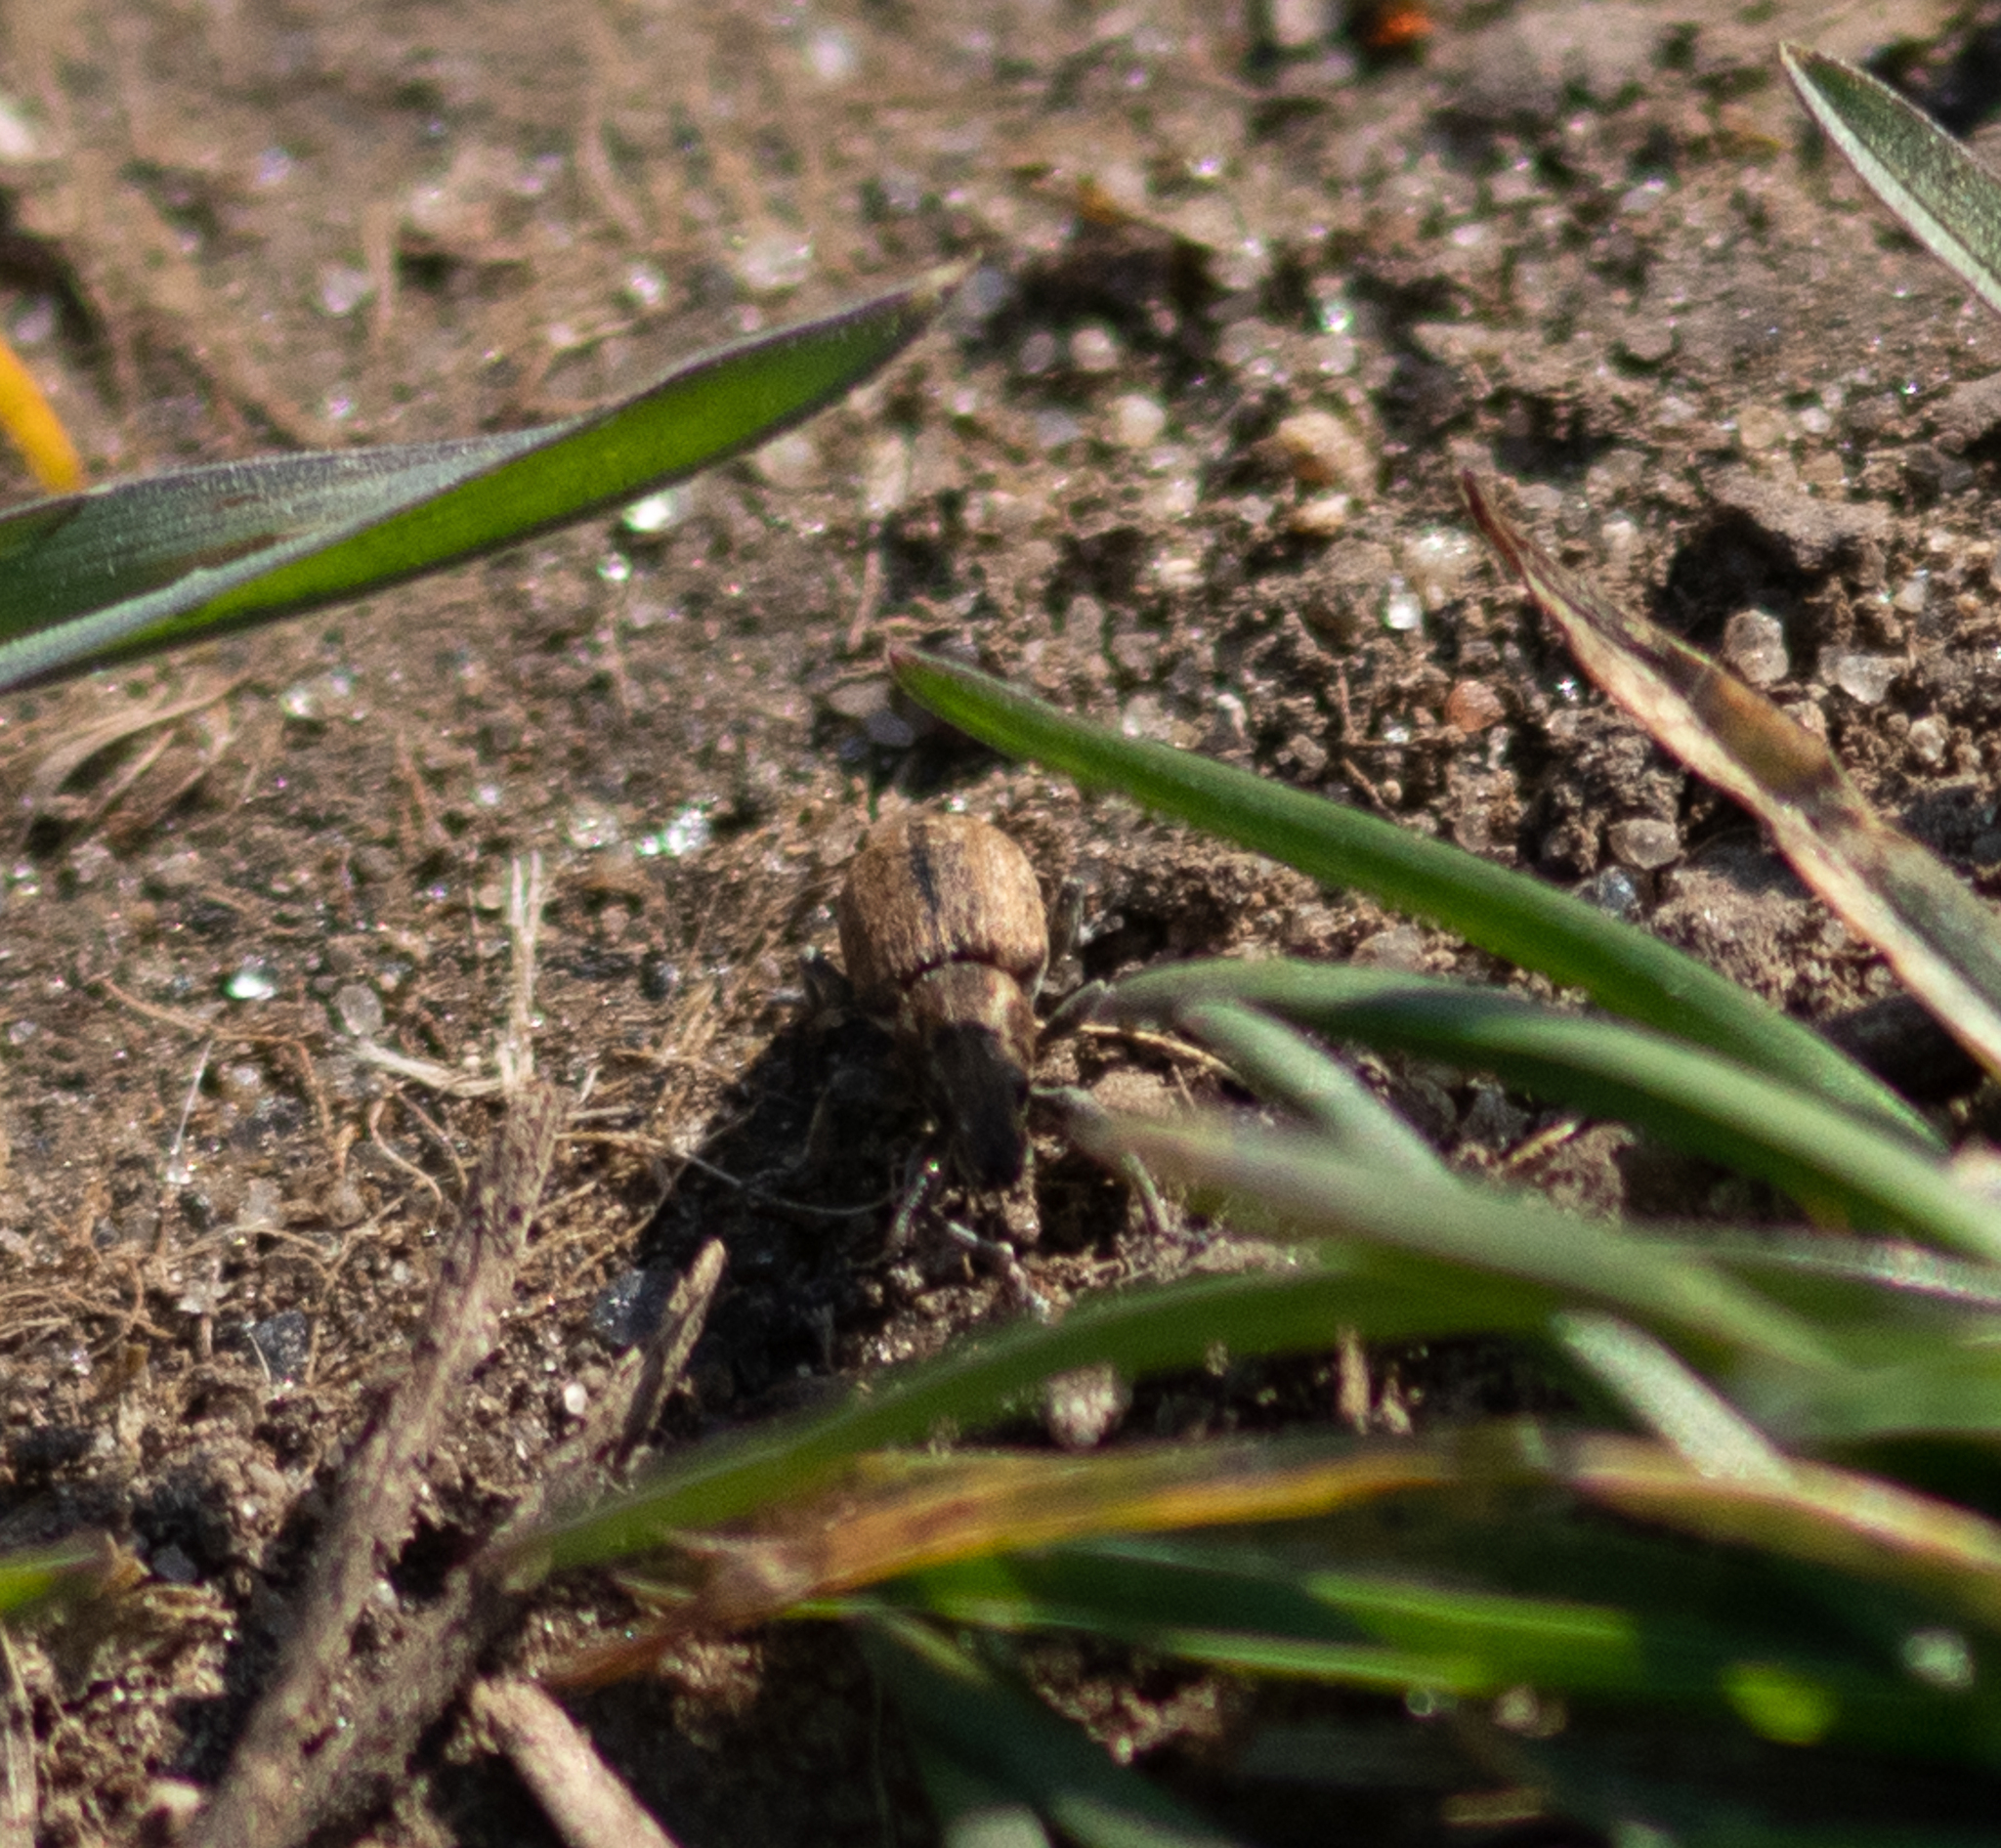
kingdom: Animalia
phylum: Arthropoda
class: Insecta
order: Coleoptera
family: Curculionidae
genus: Sitona
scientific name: Sitona obsoletus
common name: Weevil
